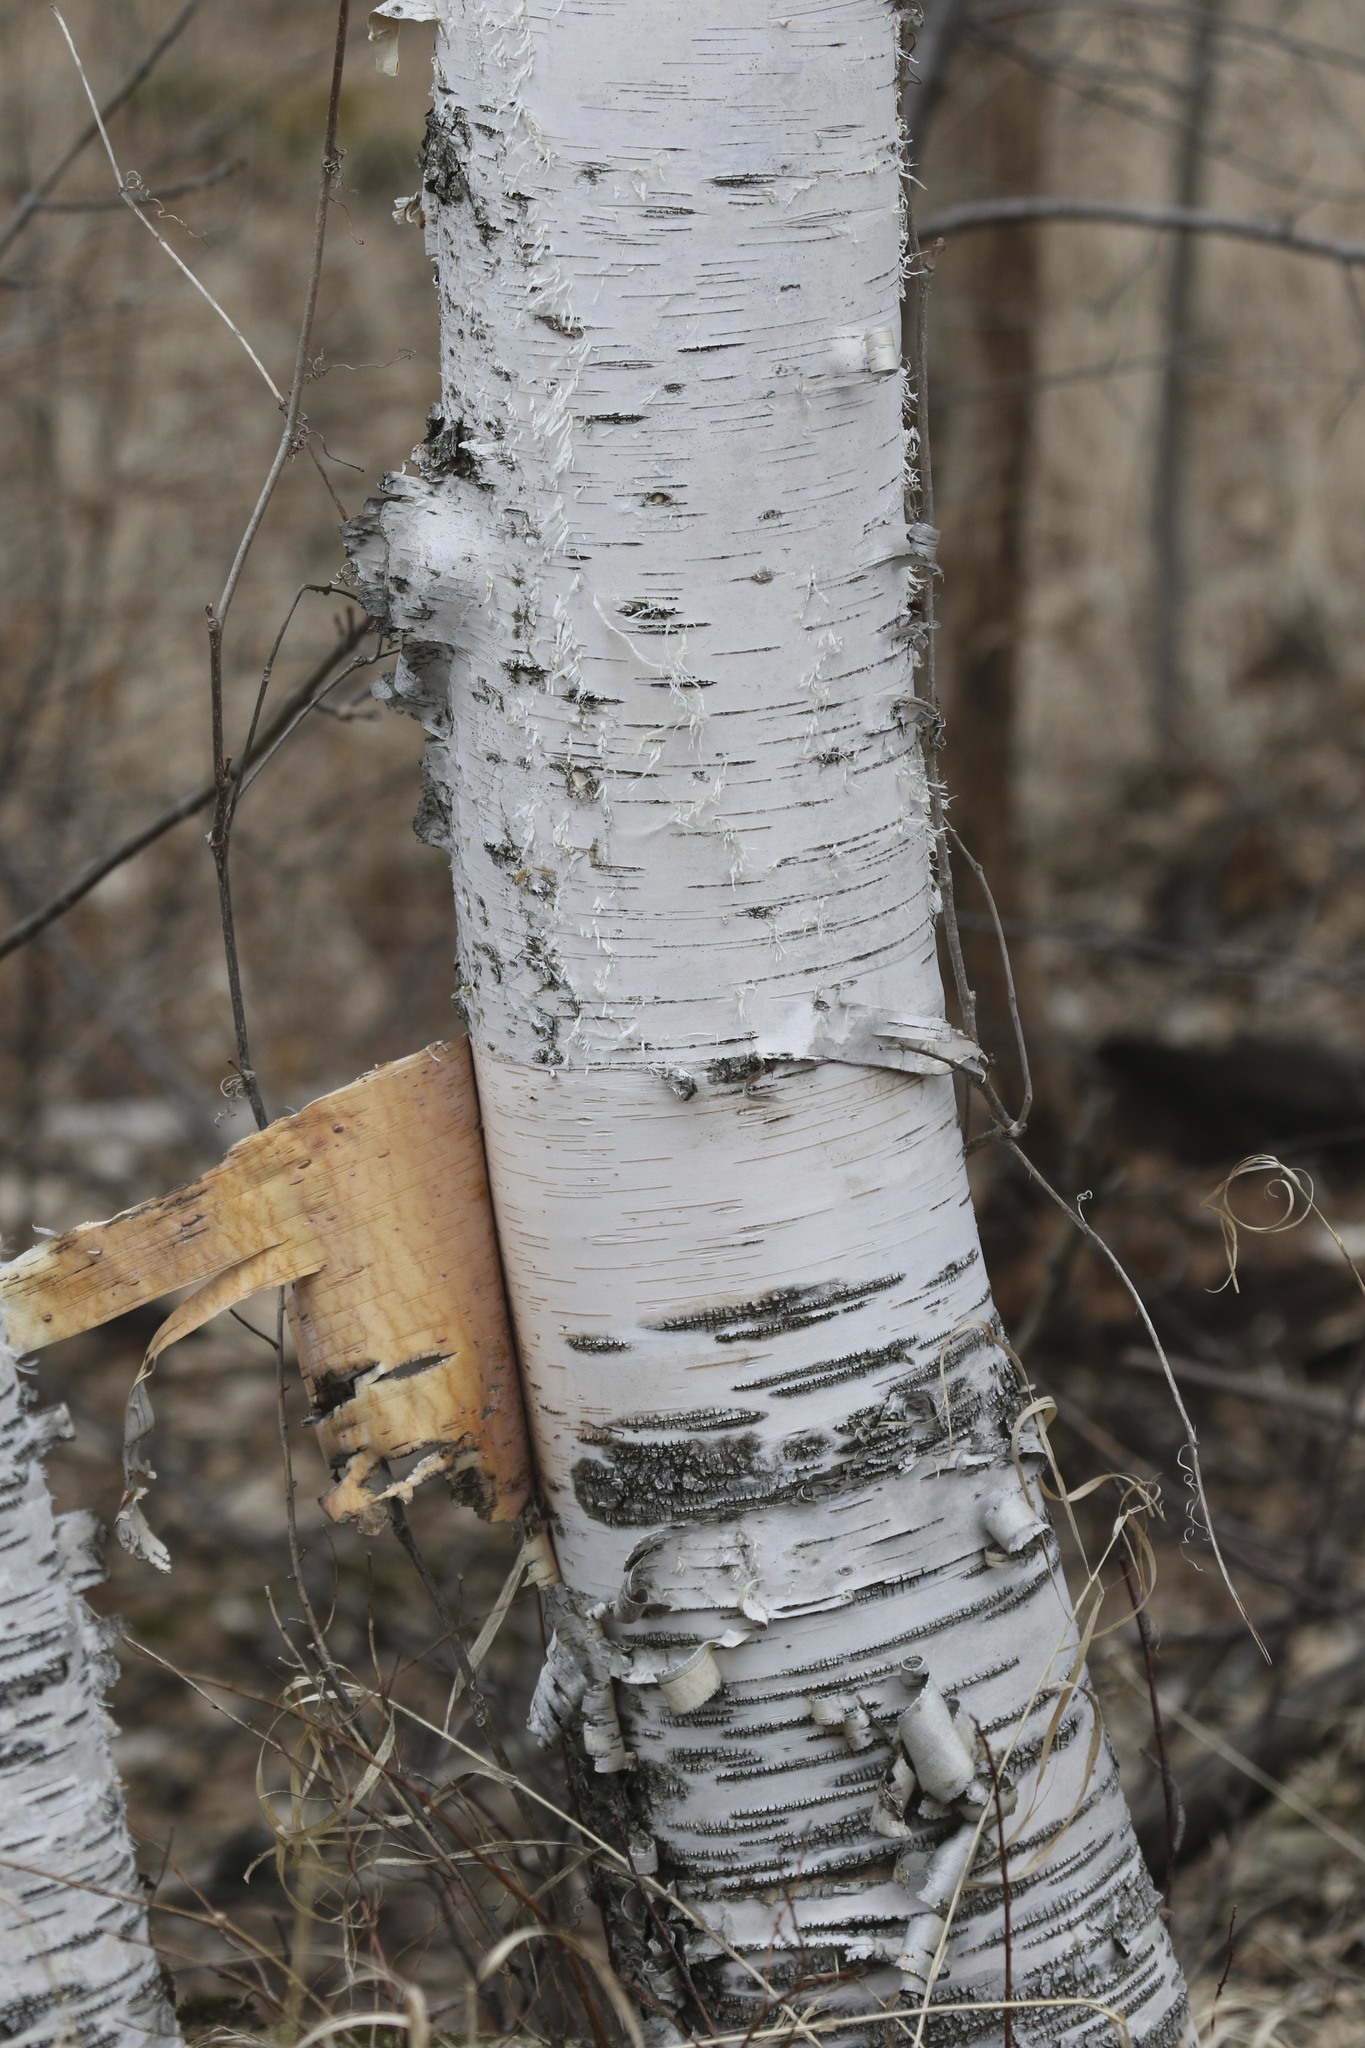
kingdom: Plantae
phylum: Tracheophyta
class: Magnoliopsida
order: Fagales
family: Betulaceae
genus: Betula
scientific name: Betula papyrifera
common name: Paper birch
